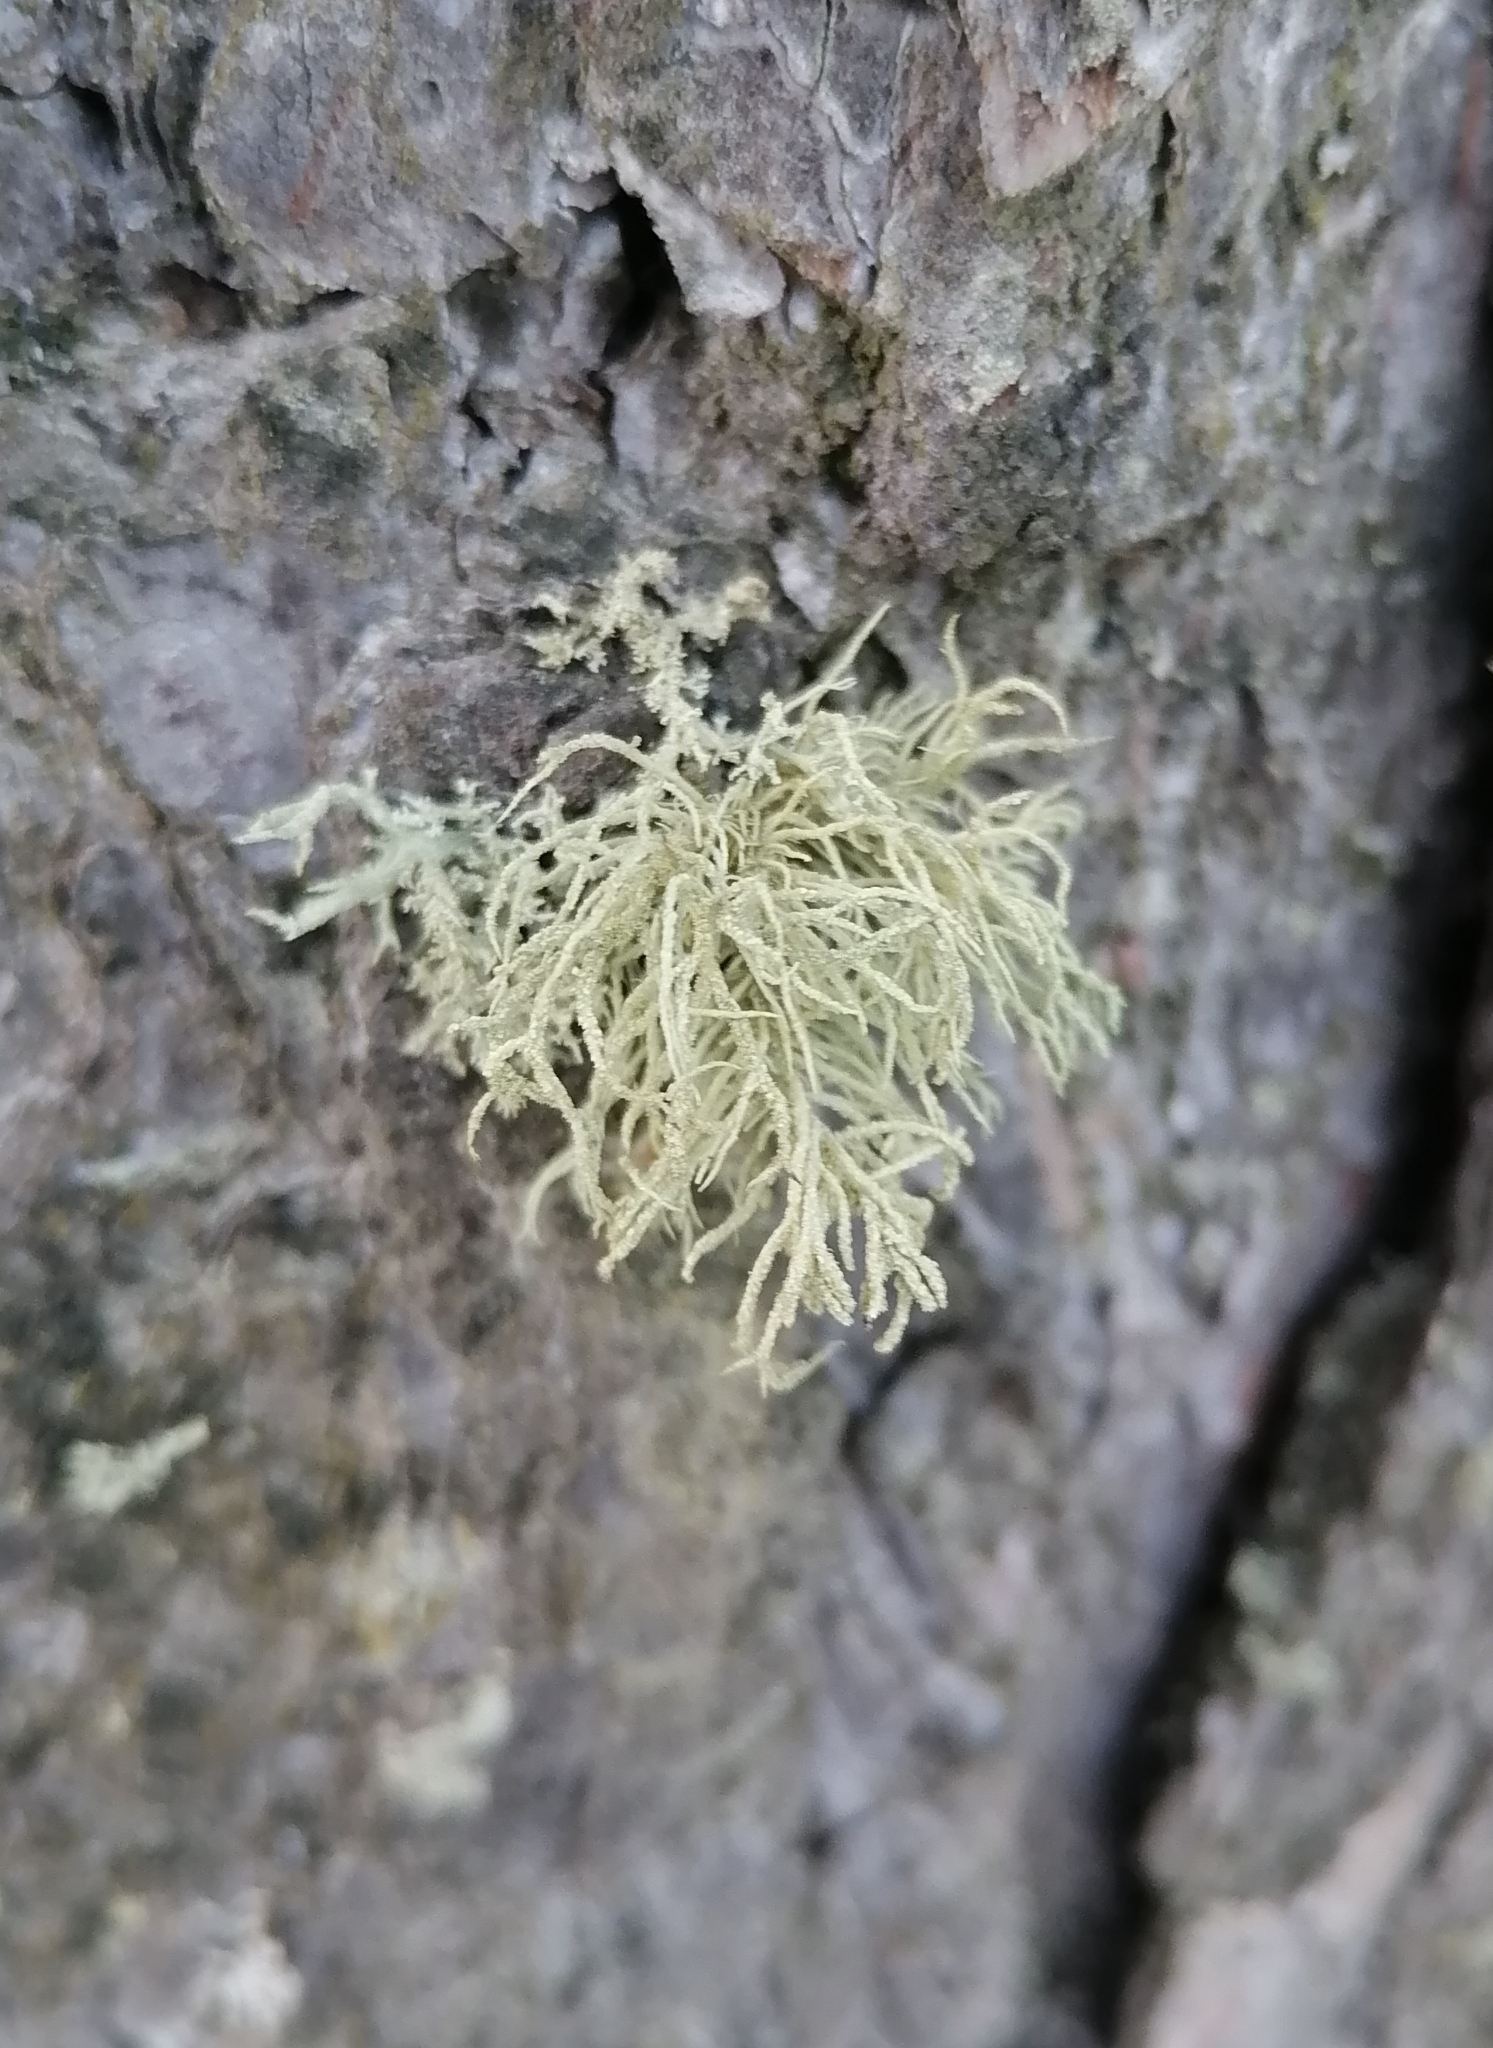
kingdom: Fungi
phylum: Ascomycota
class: Lecanoromycetes
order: Lecanorales
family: Parmeliaceae
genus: Usnea
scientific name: Usnea hirta
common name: Bristly beard lichen
